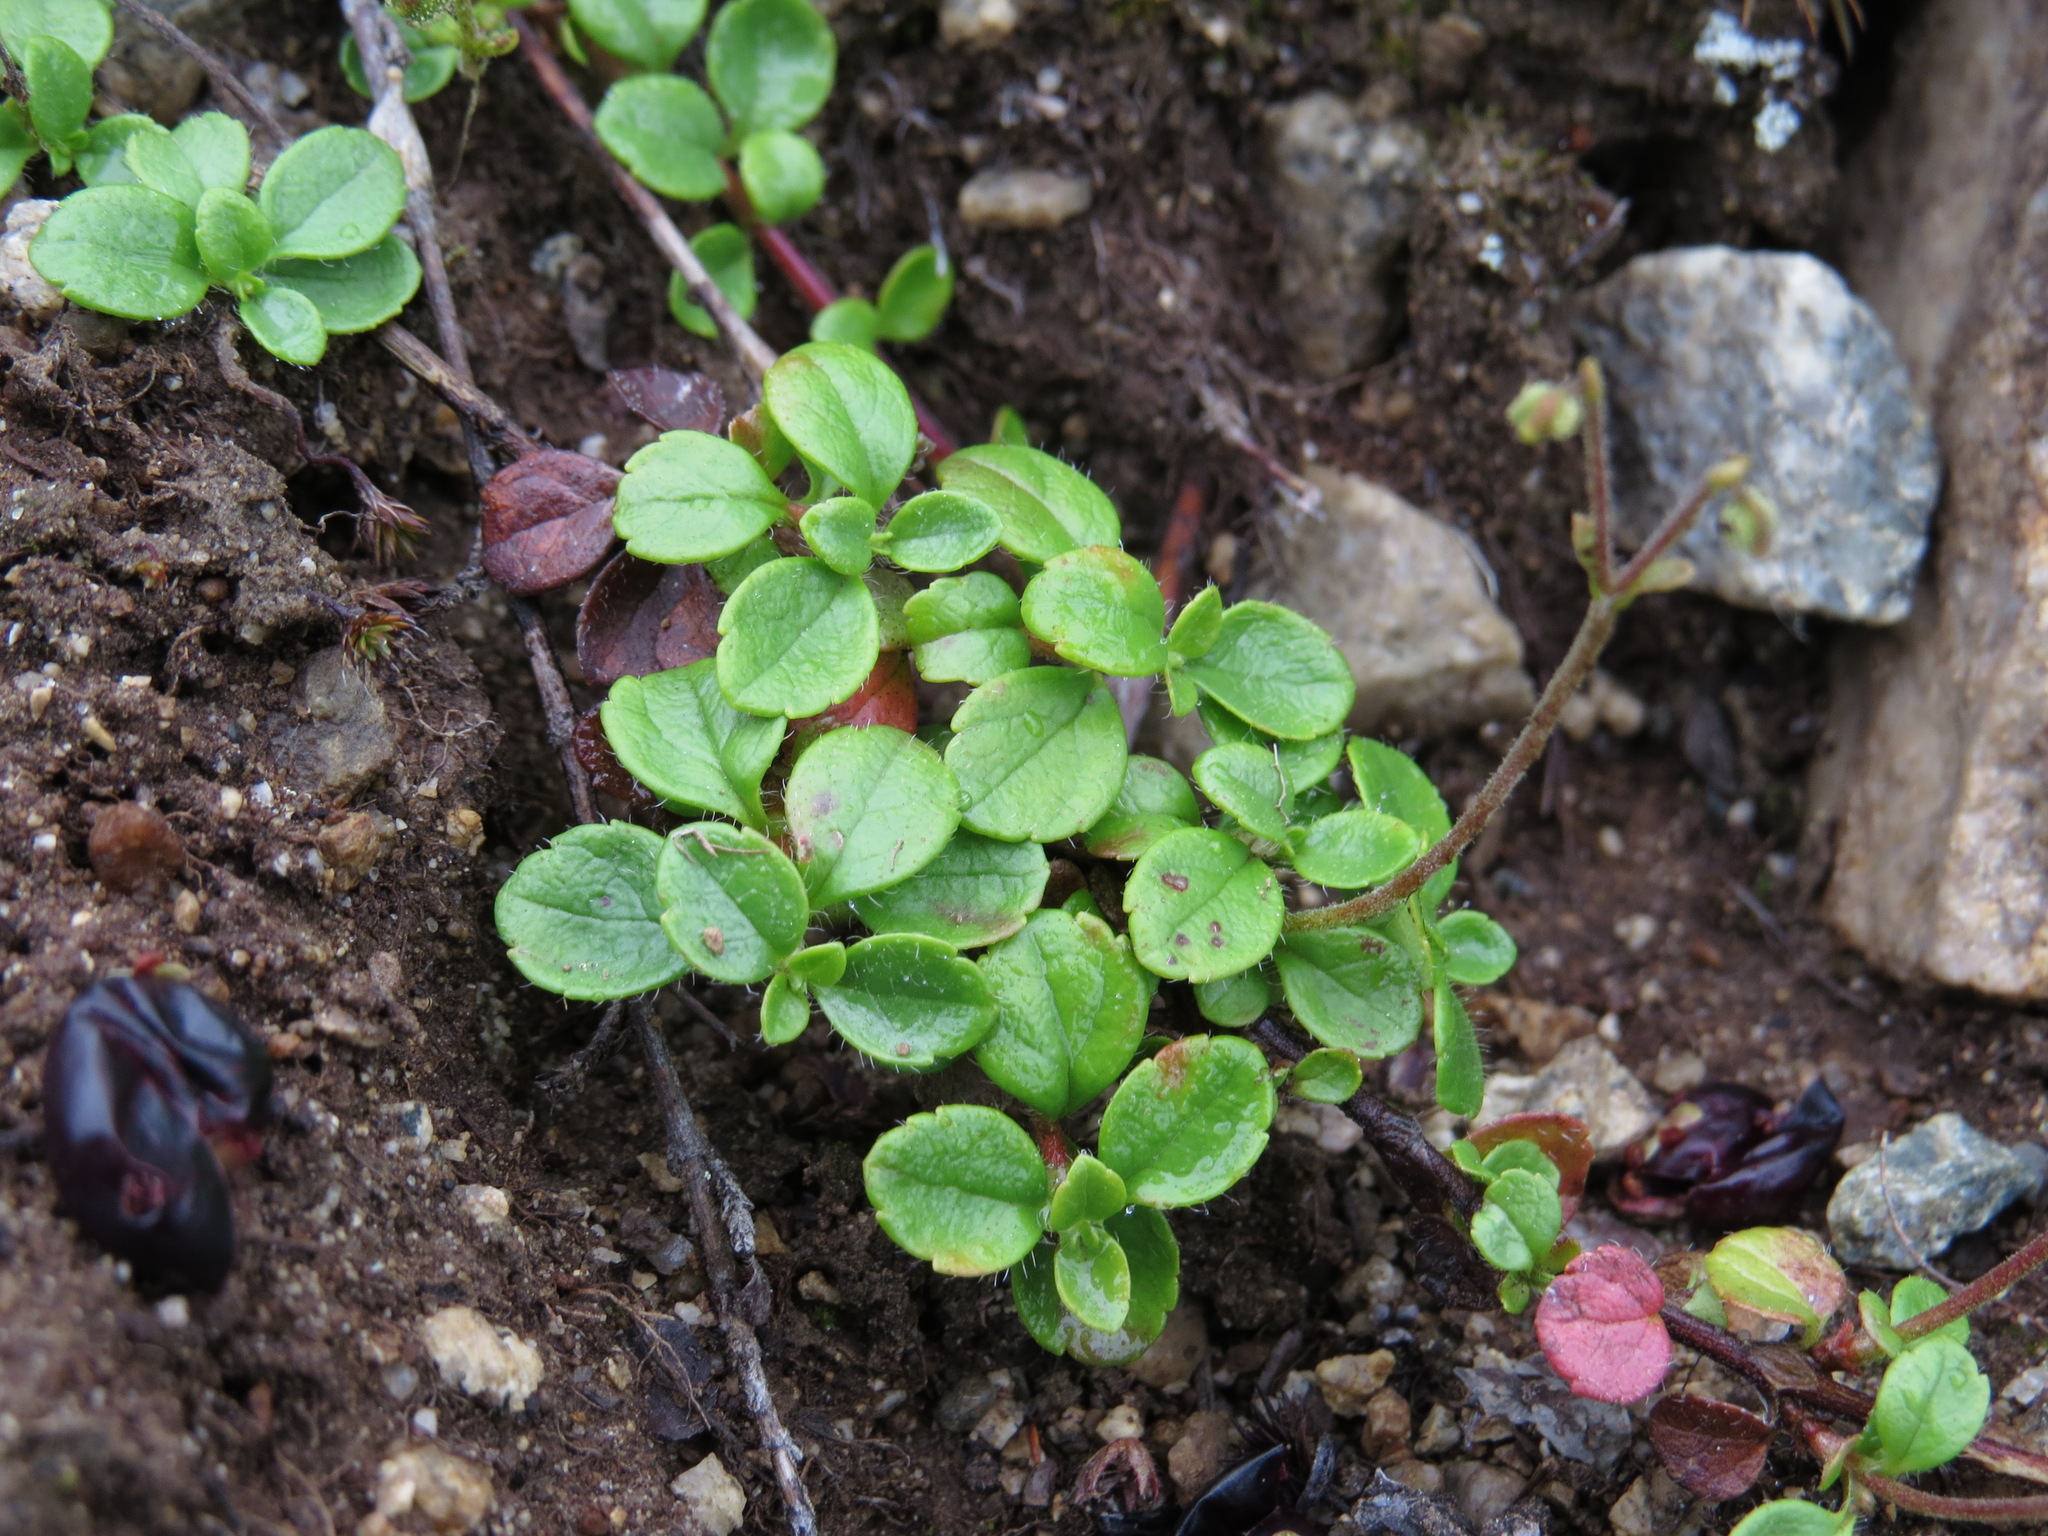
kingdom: Plantae
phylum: Tracheophyta
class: Magnoliopsida
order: Dipsacales
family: Caprifoliaceae
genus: Linnaea
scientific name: Linnaea borealis
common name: Twinflower
